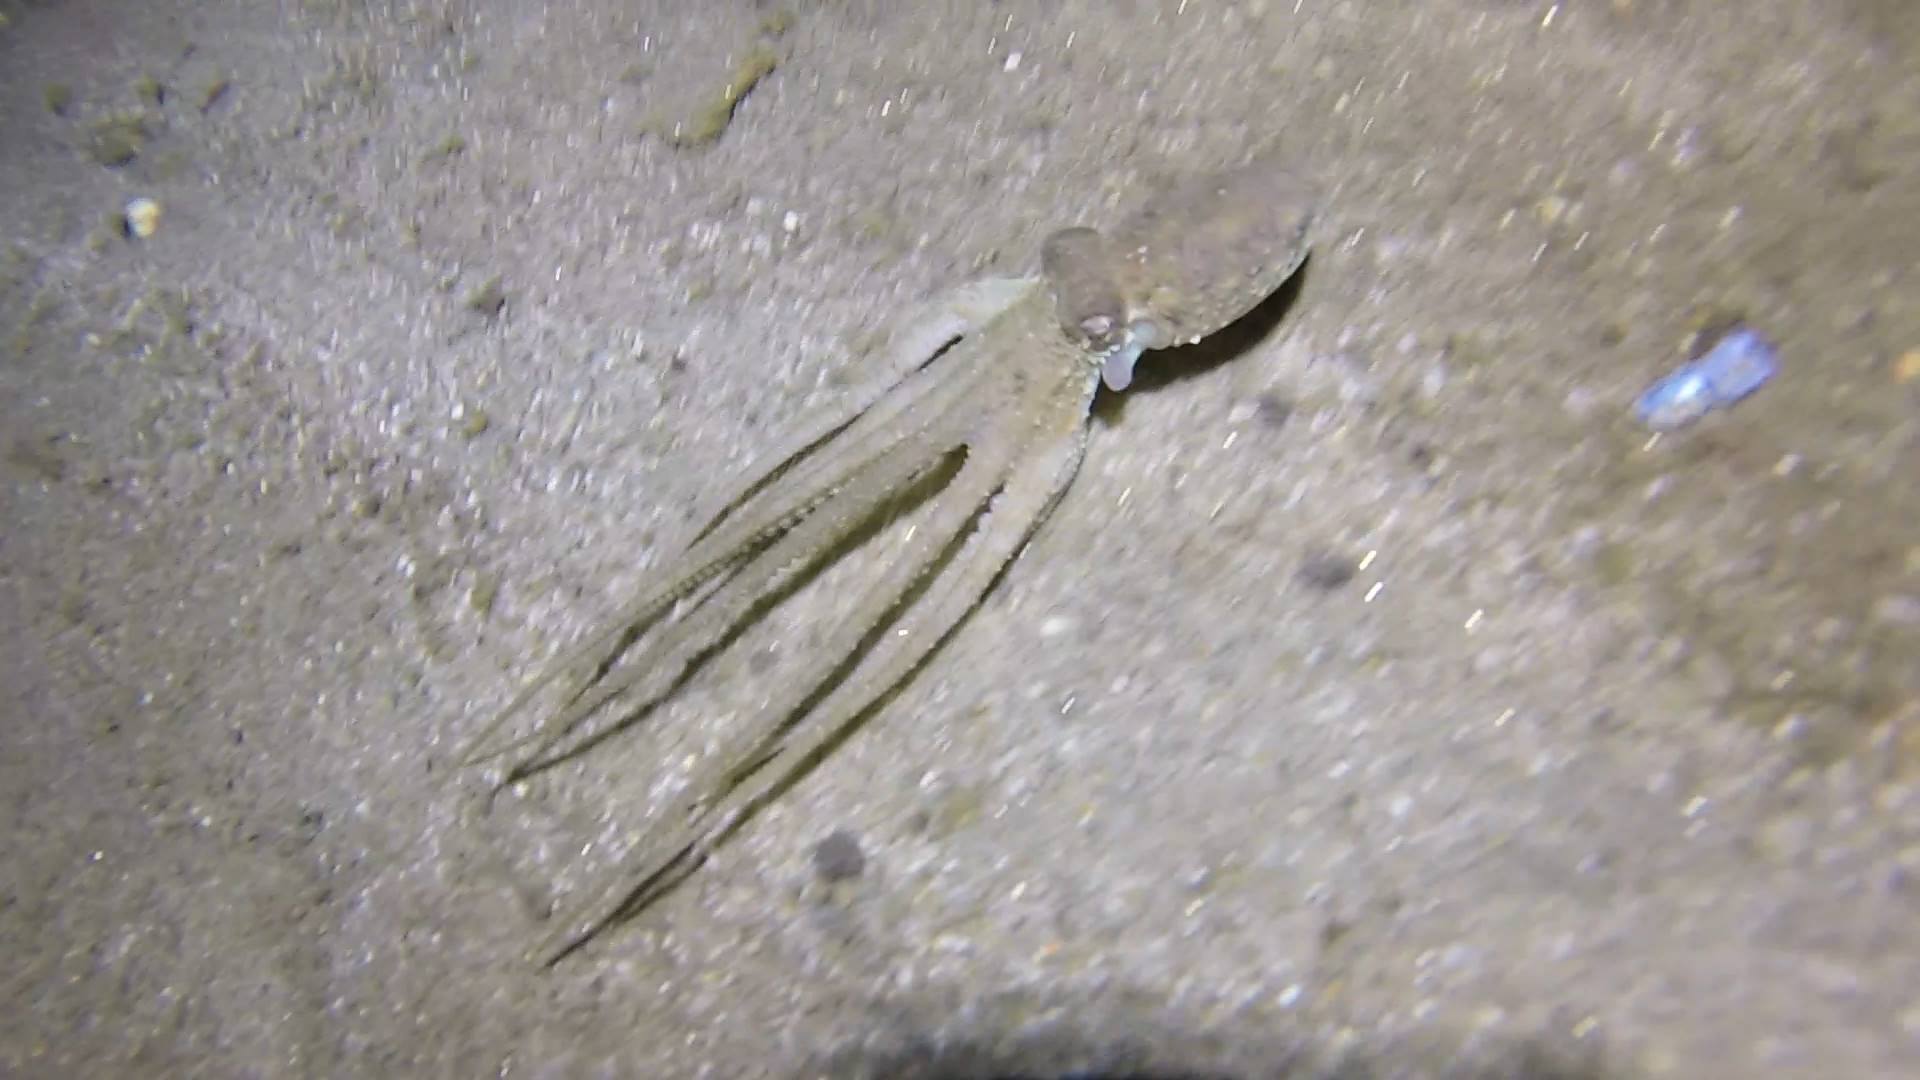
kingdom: Animalia
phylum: Mollusca
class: Cephalopoda
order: Octopoda
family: Octopodidae
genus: Octopus
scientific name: Octopus bimaculoides
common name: California two-spot octopus
